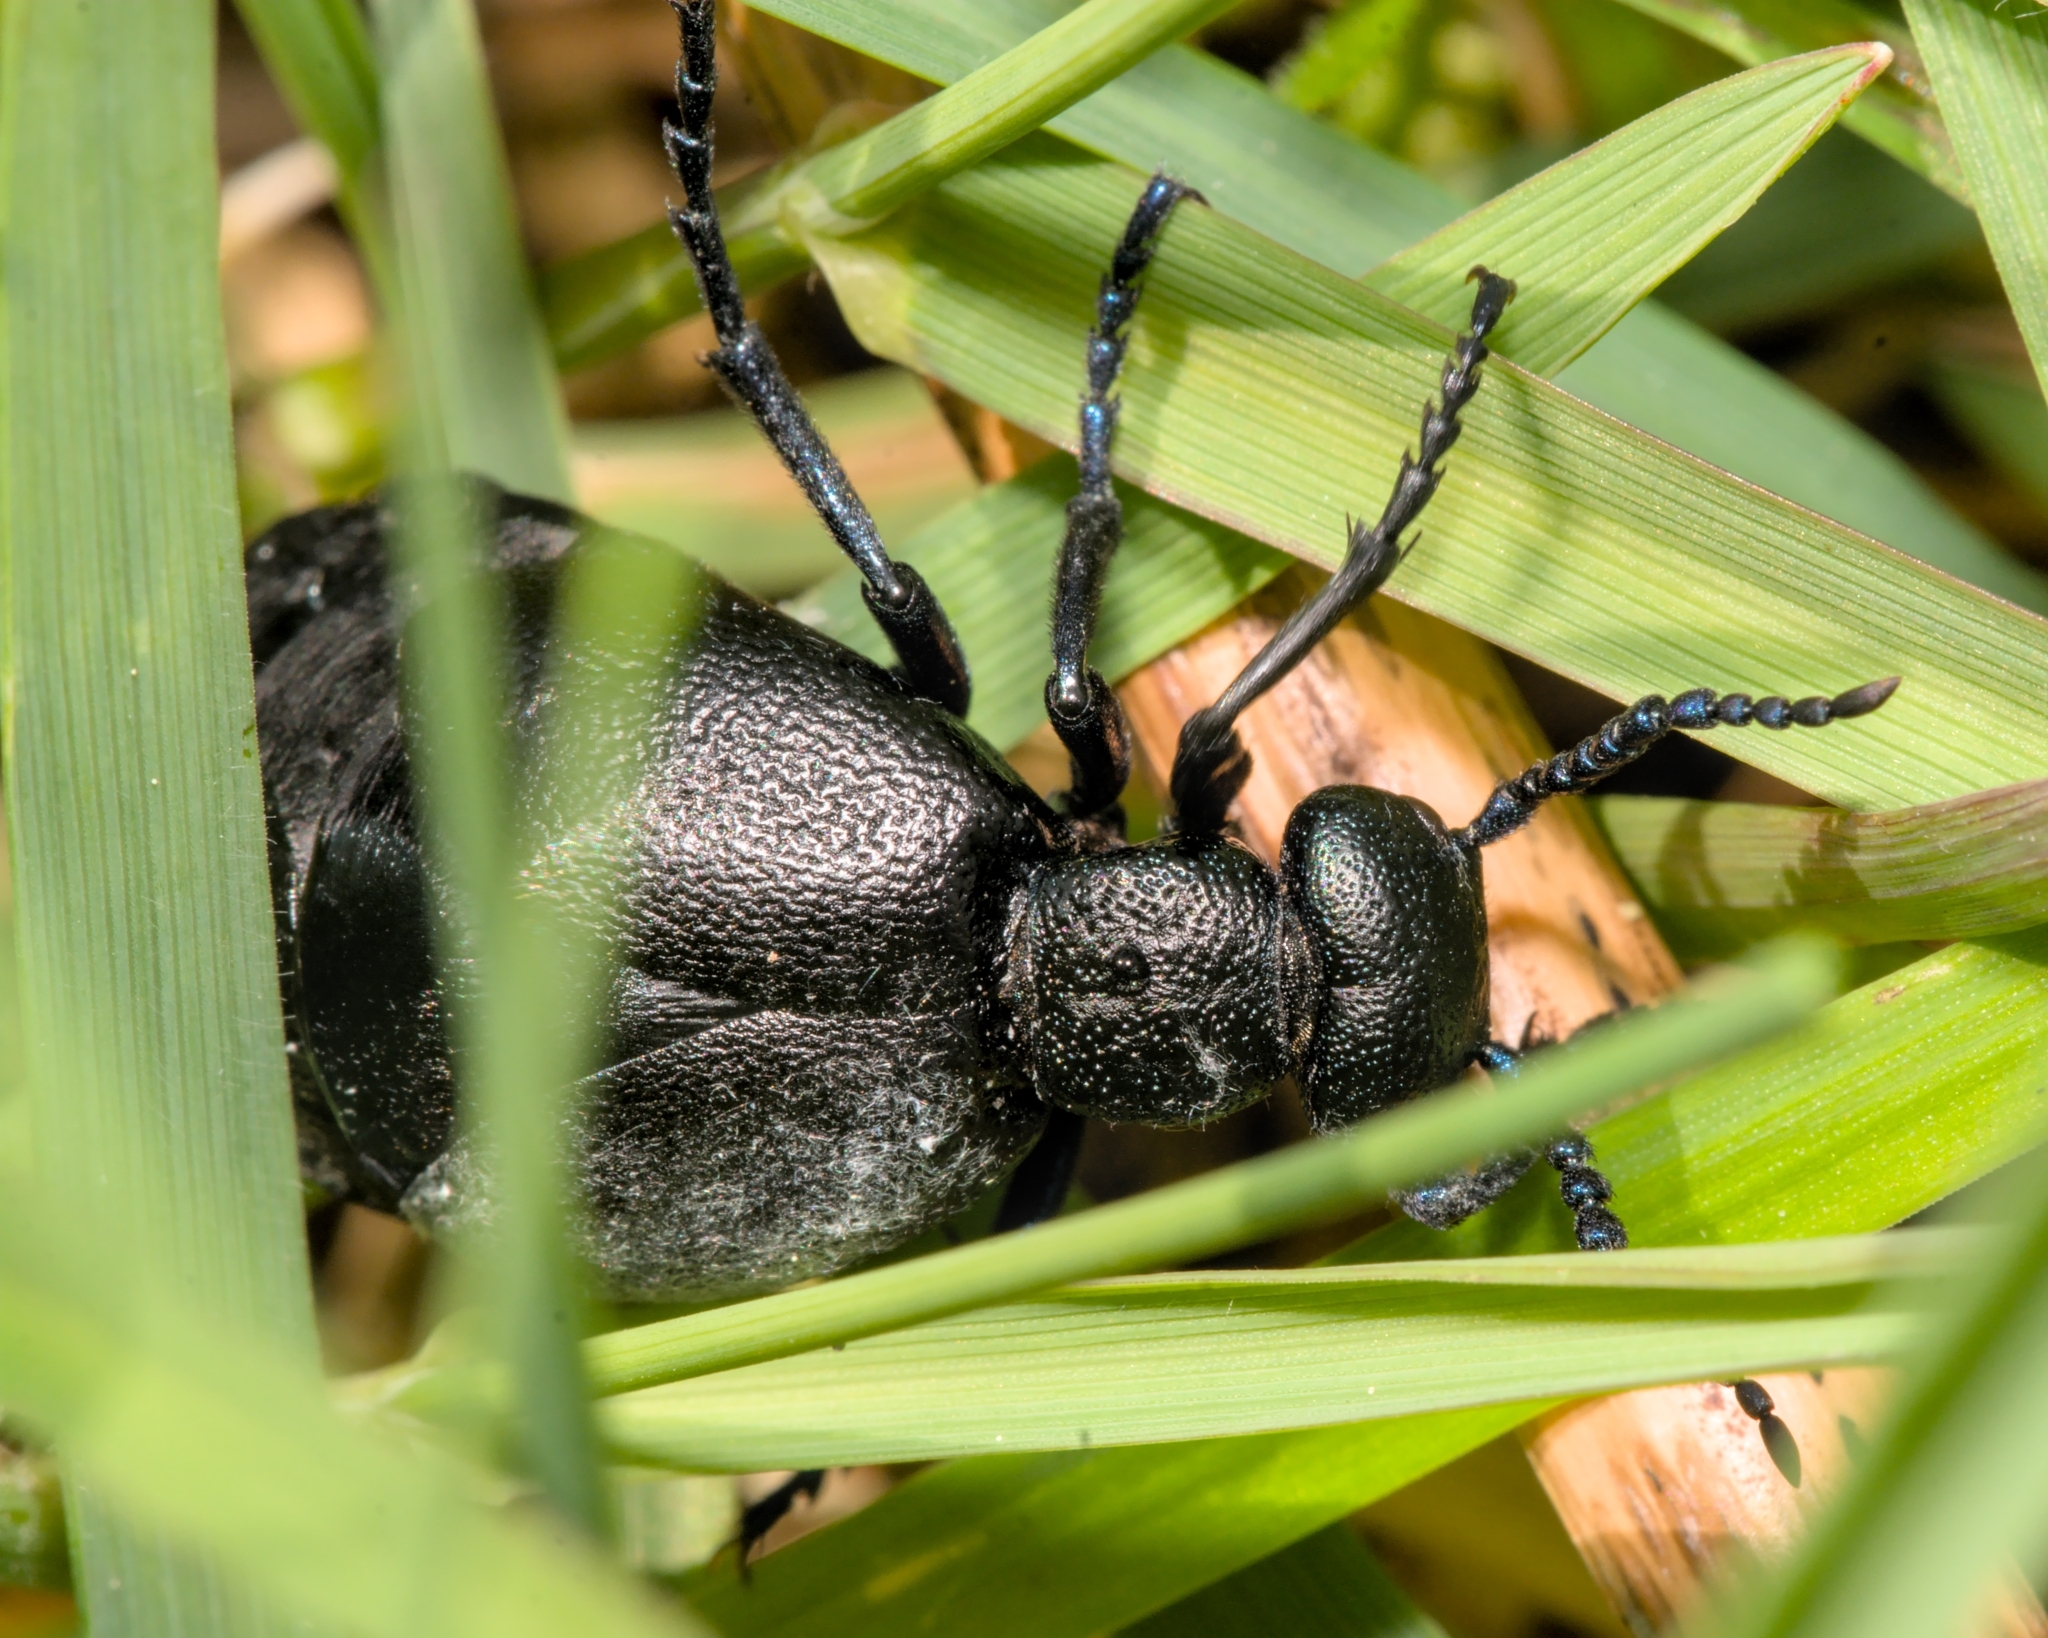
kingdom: Animalia
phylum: Arthropoda
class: Insecta
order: Coleoptera
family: Meloidae
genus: Meloe
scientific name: Meloe proscarabaeus
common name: Black oil-beetle
